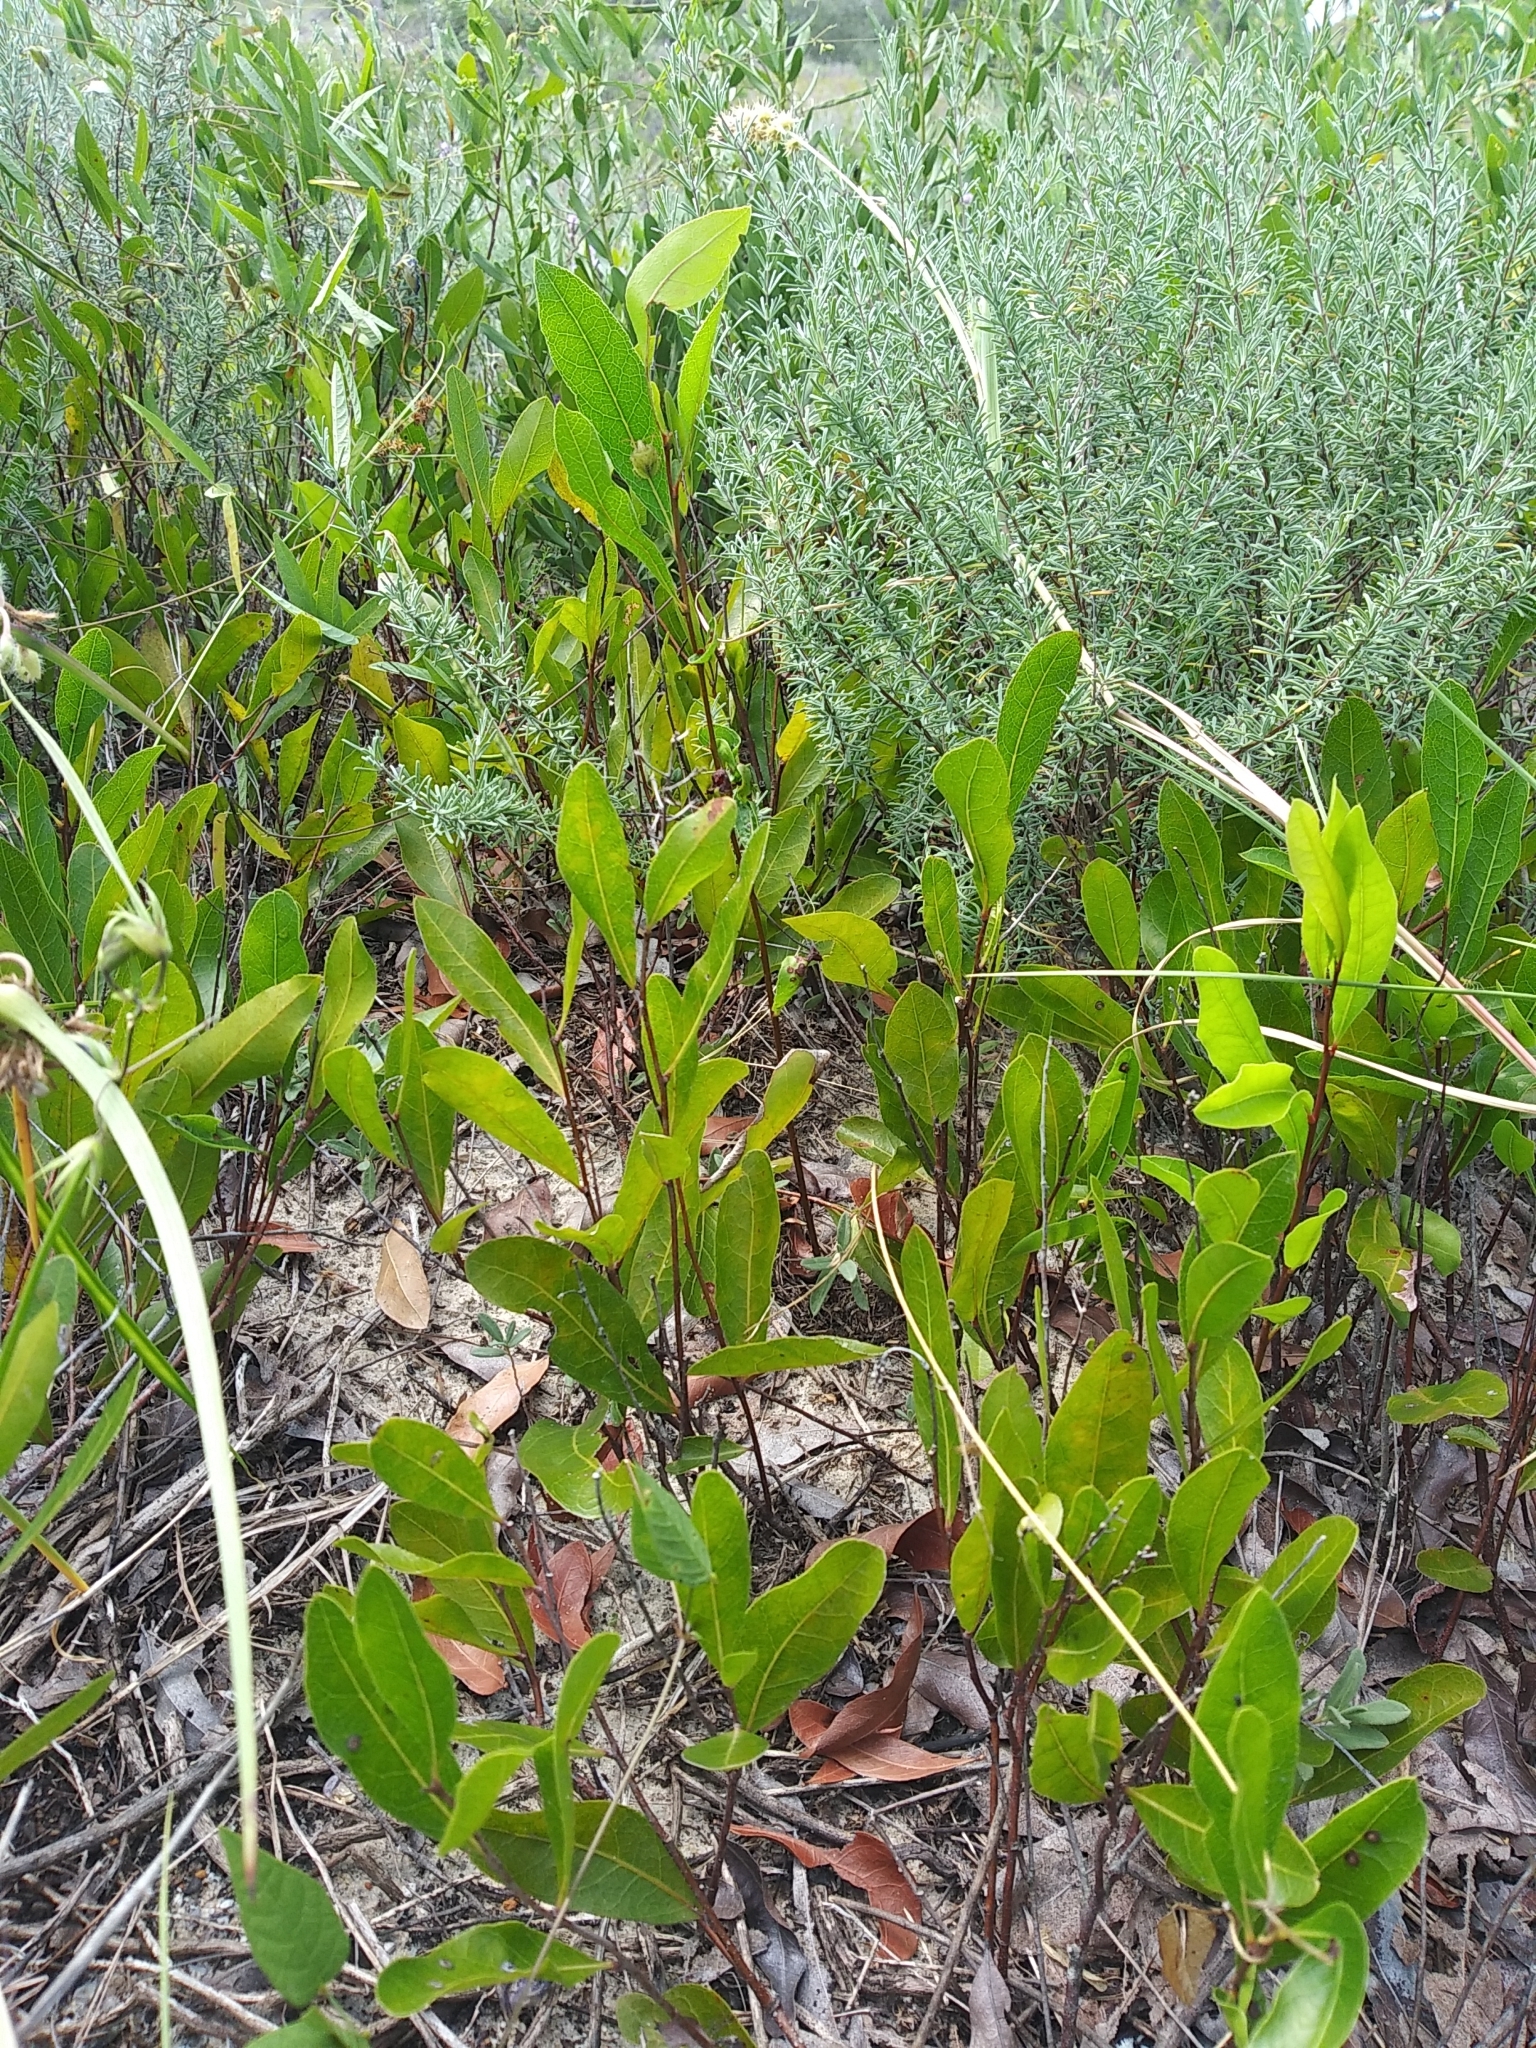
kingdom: Plantae
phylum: Tracheophyta
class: Magnoliopsida
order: Malpighiales
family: Chrysobalanaceae
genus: Geobalanus
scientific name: Geobalanus oblongifolius
